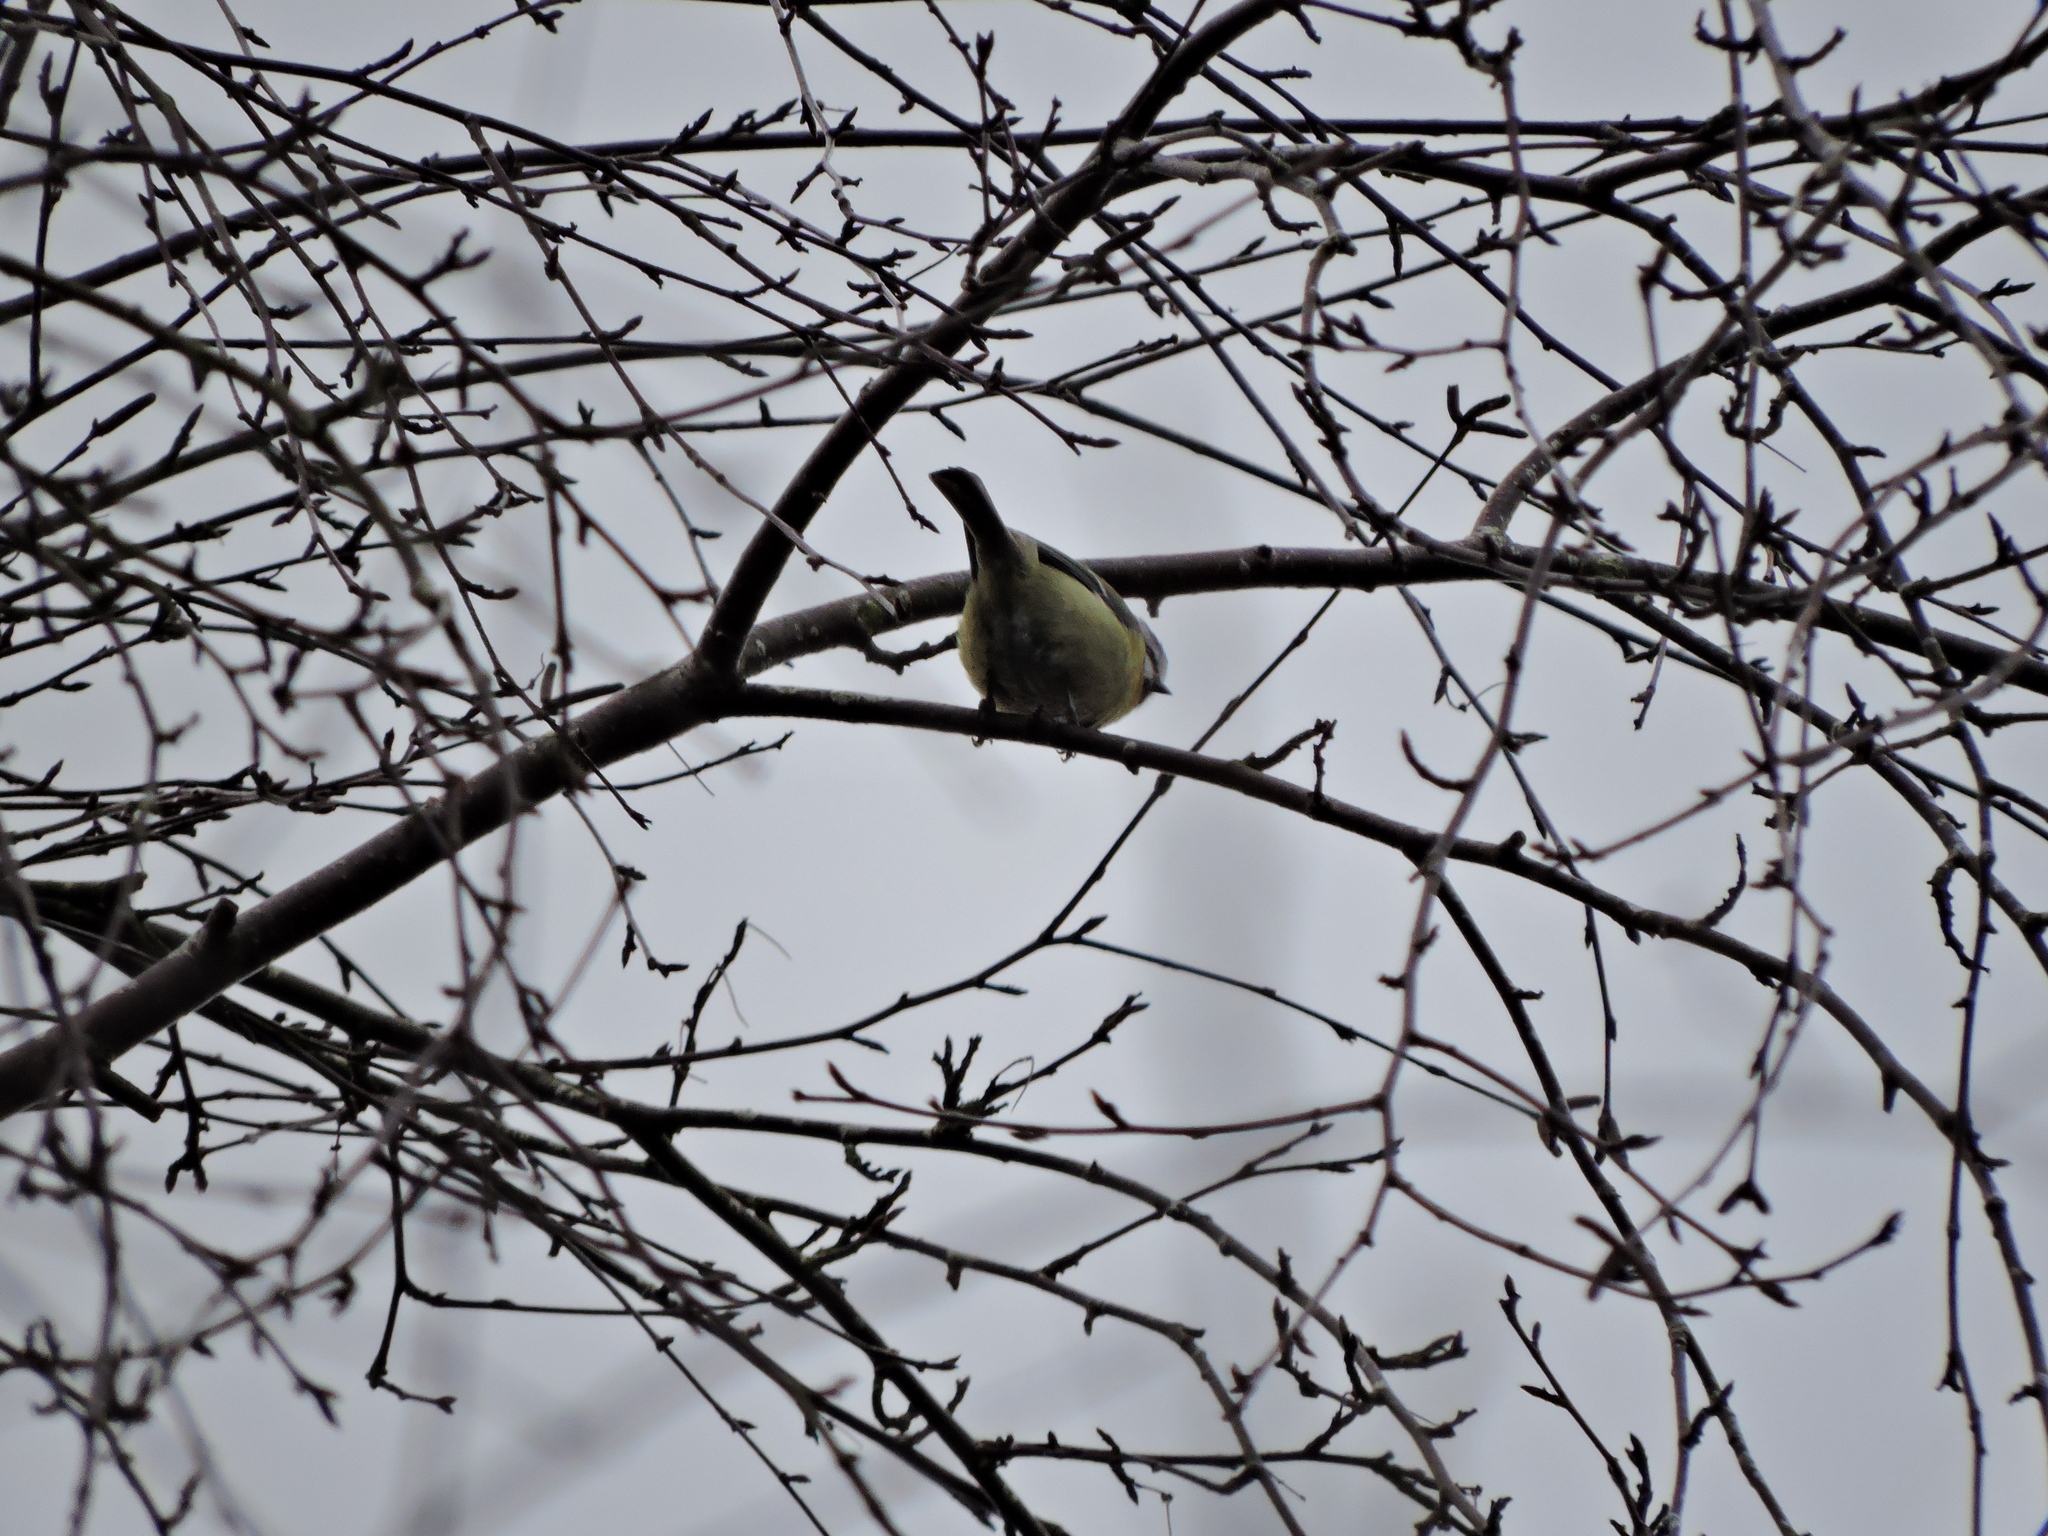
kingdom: Animalia
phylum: Chordata
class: Aves
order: Passeriformes
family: Paridae
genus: Cyanistes
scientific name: Cyanistes caeruleus
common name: Eurasian blue tit
